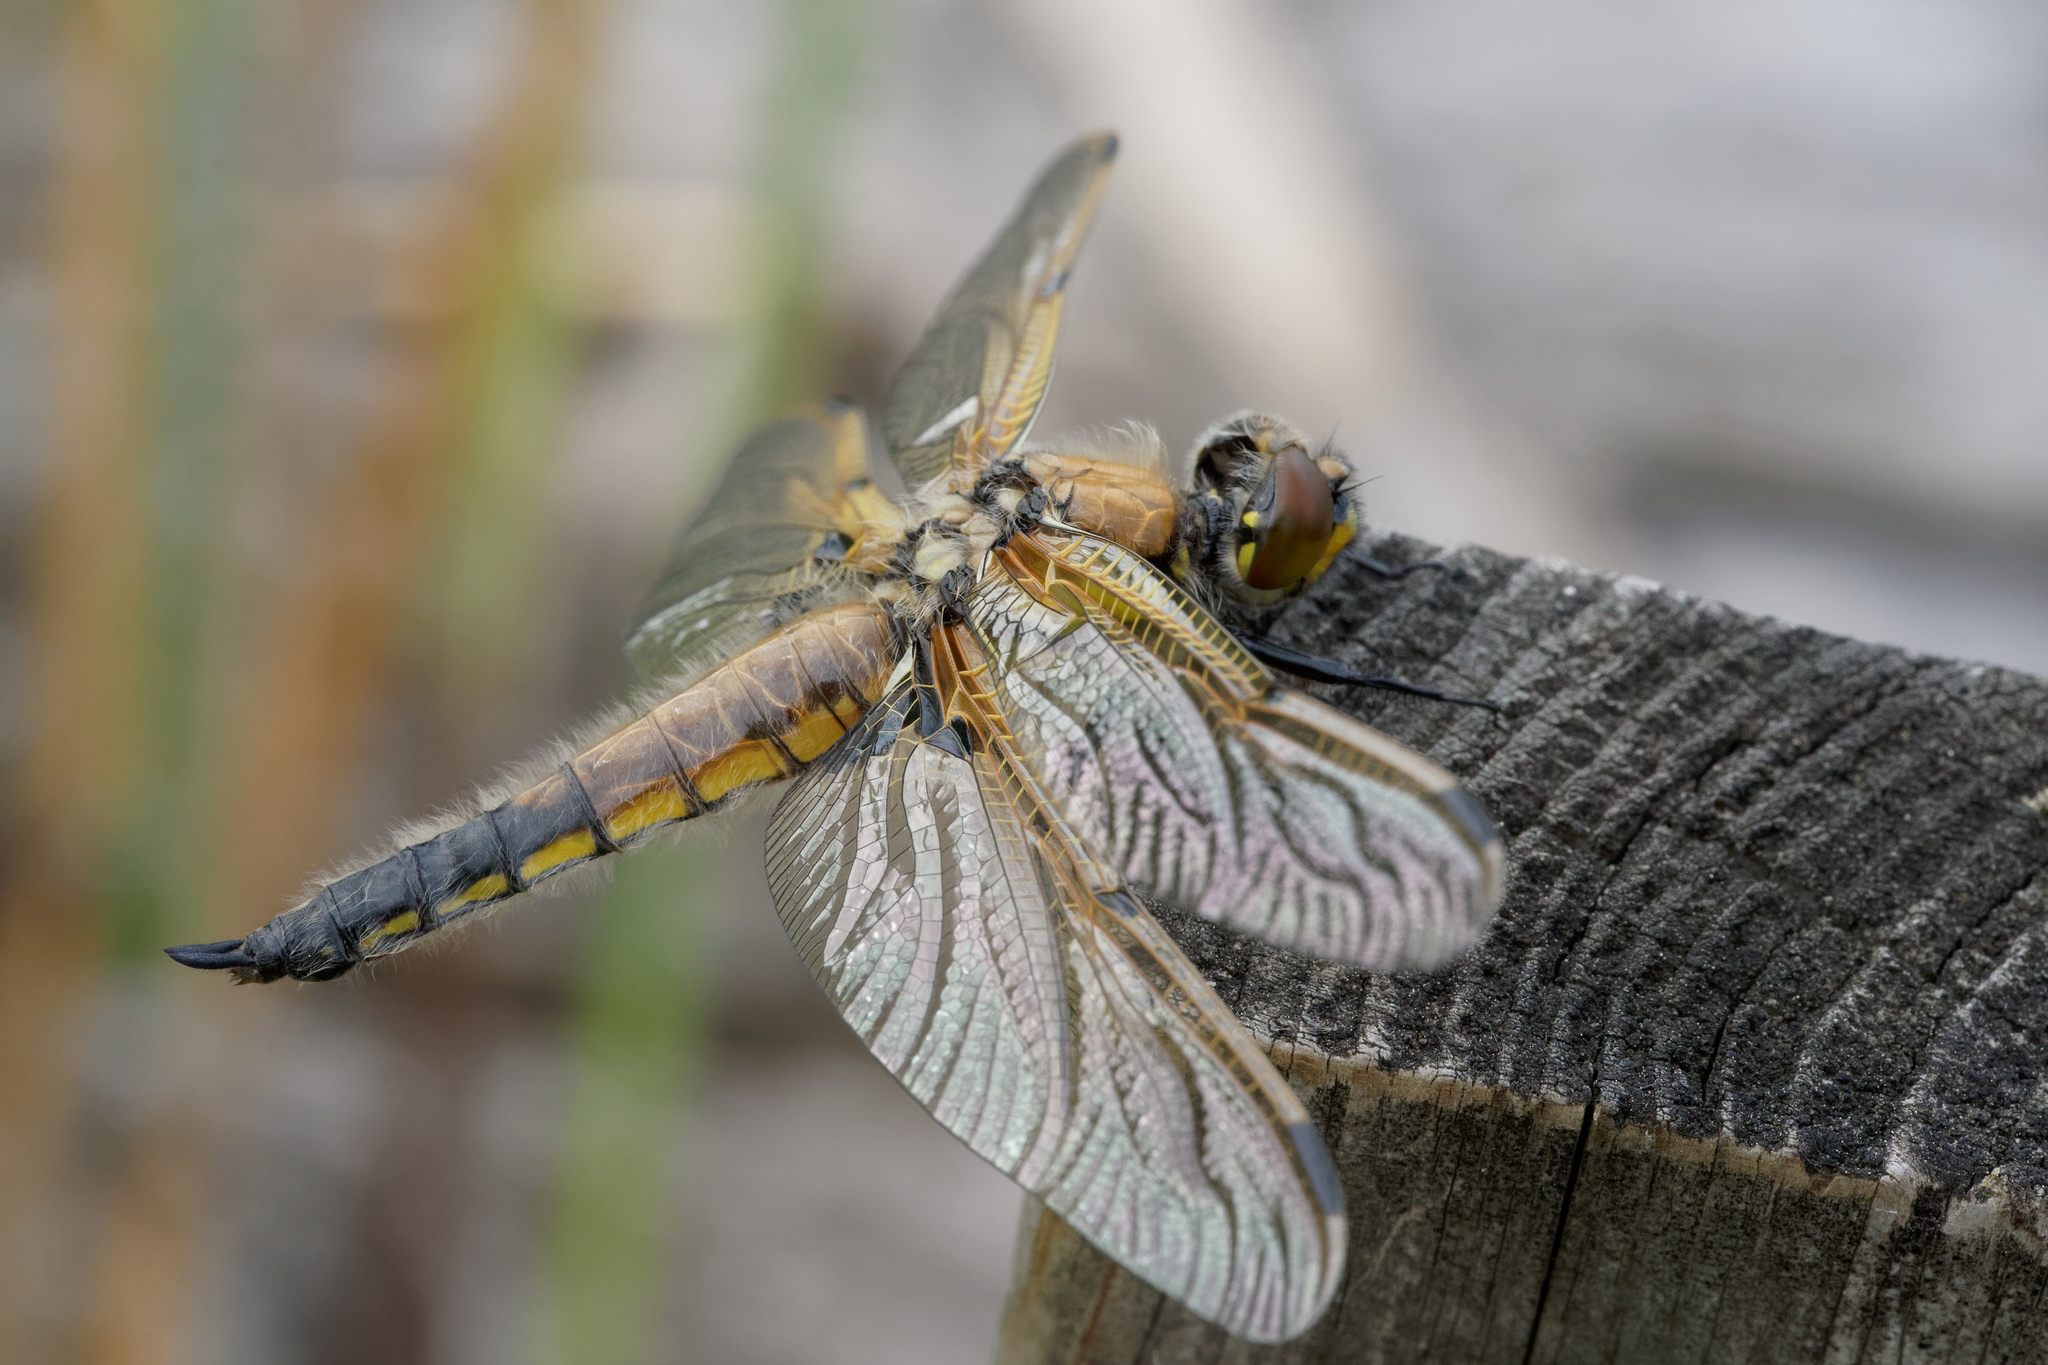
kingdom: Animalia
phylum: Arthropoda
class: Insecta
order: Odonata
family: Libellulidae
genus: Libellula
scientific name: Libellula quadrimaculata
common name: Four-spotted chaser
